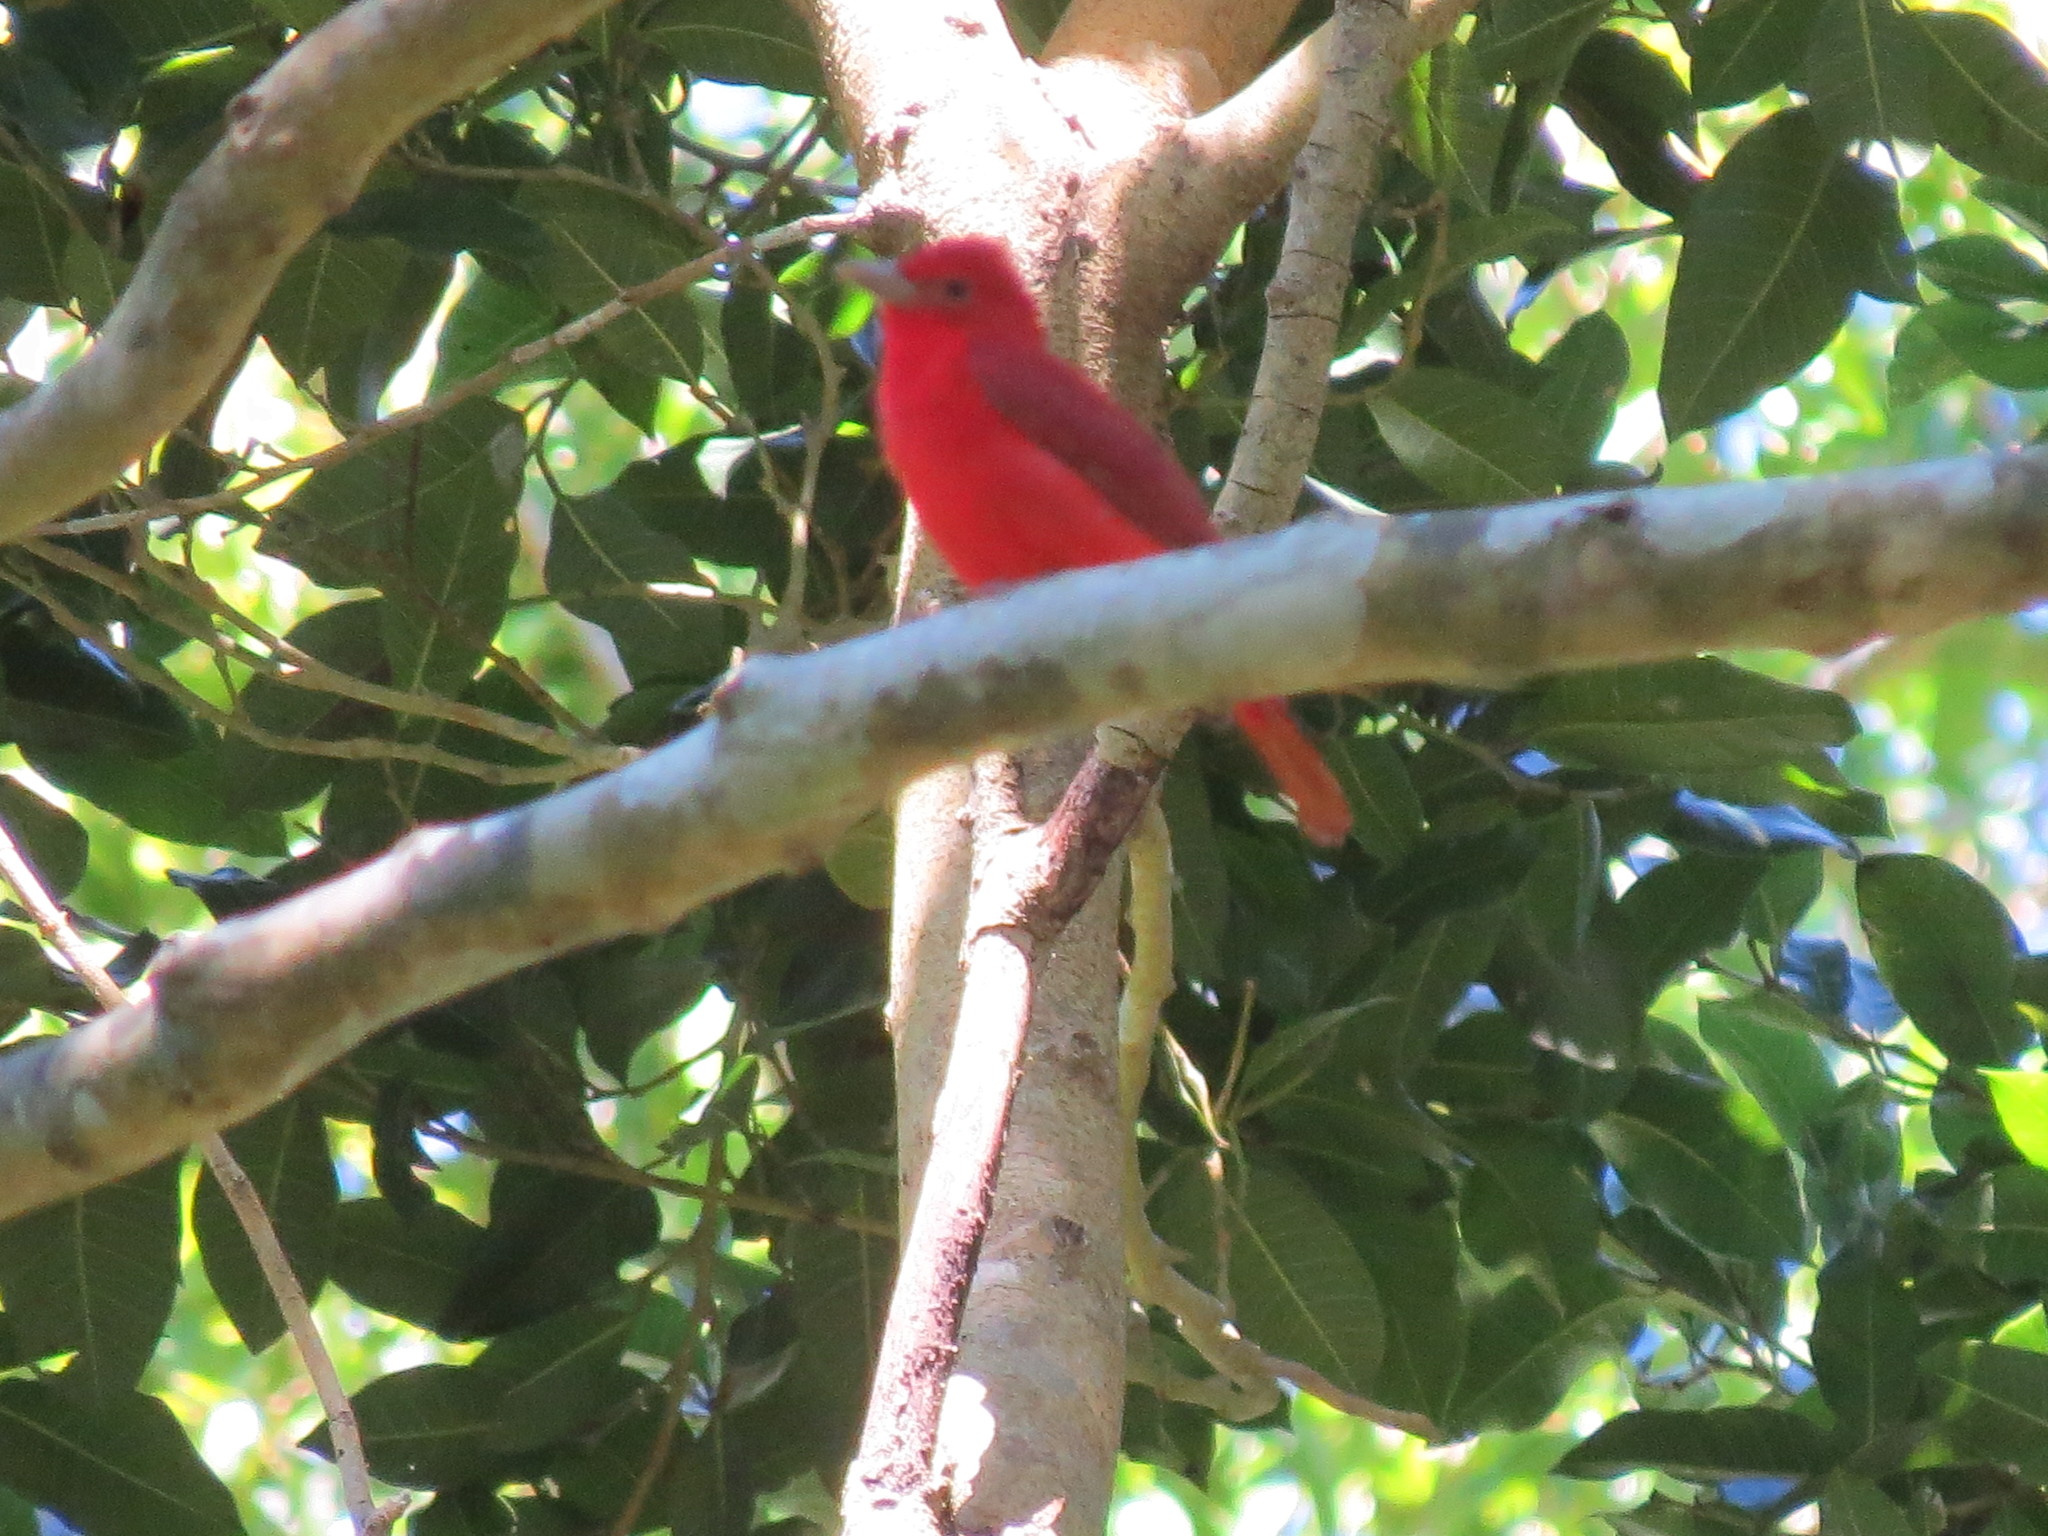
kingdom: Animalia
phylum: Chordata
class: Aves
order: Passeriformes
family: Cardinalidae
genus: Piranga
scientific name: Piranga rubra
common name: Summer tanager
